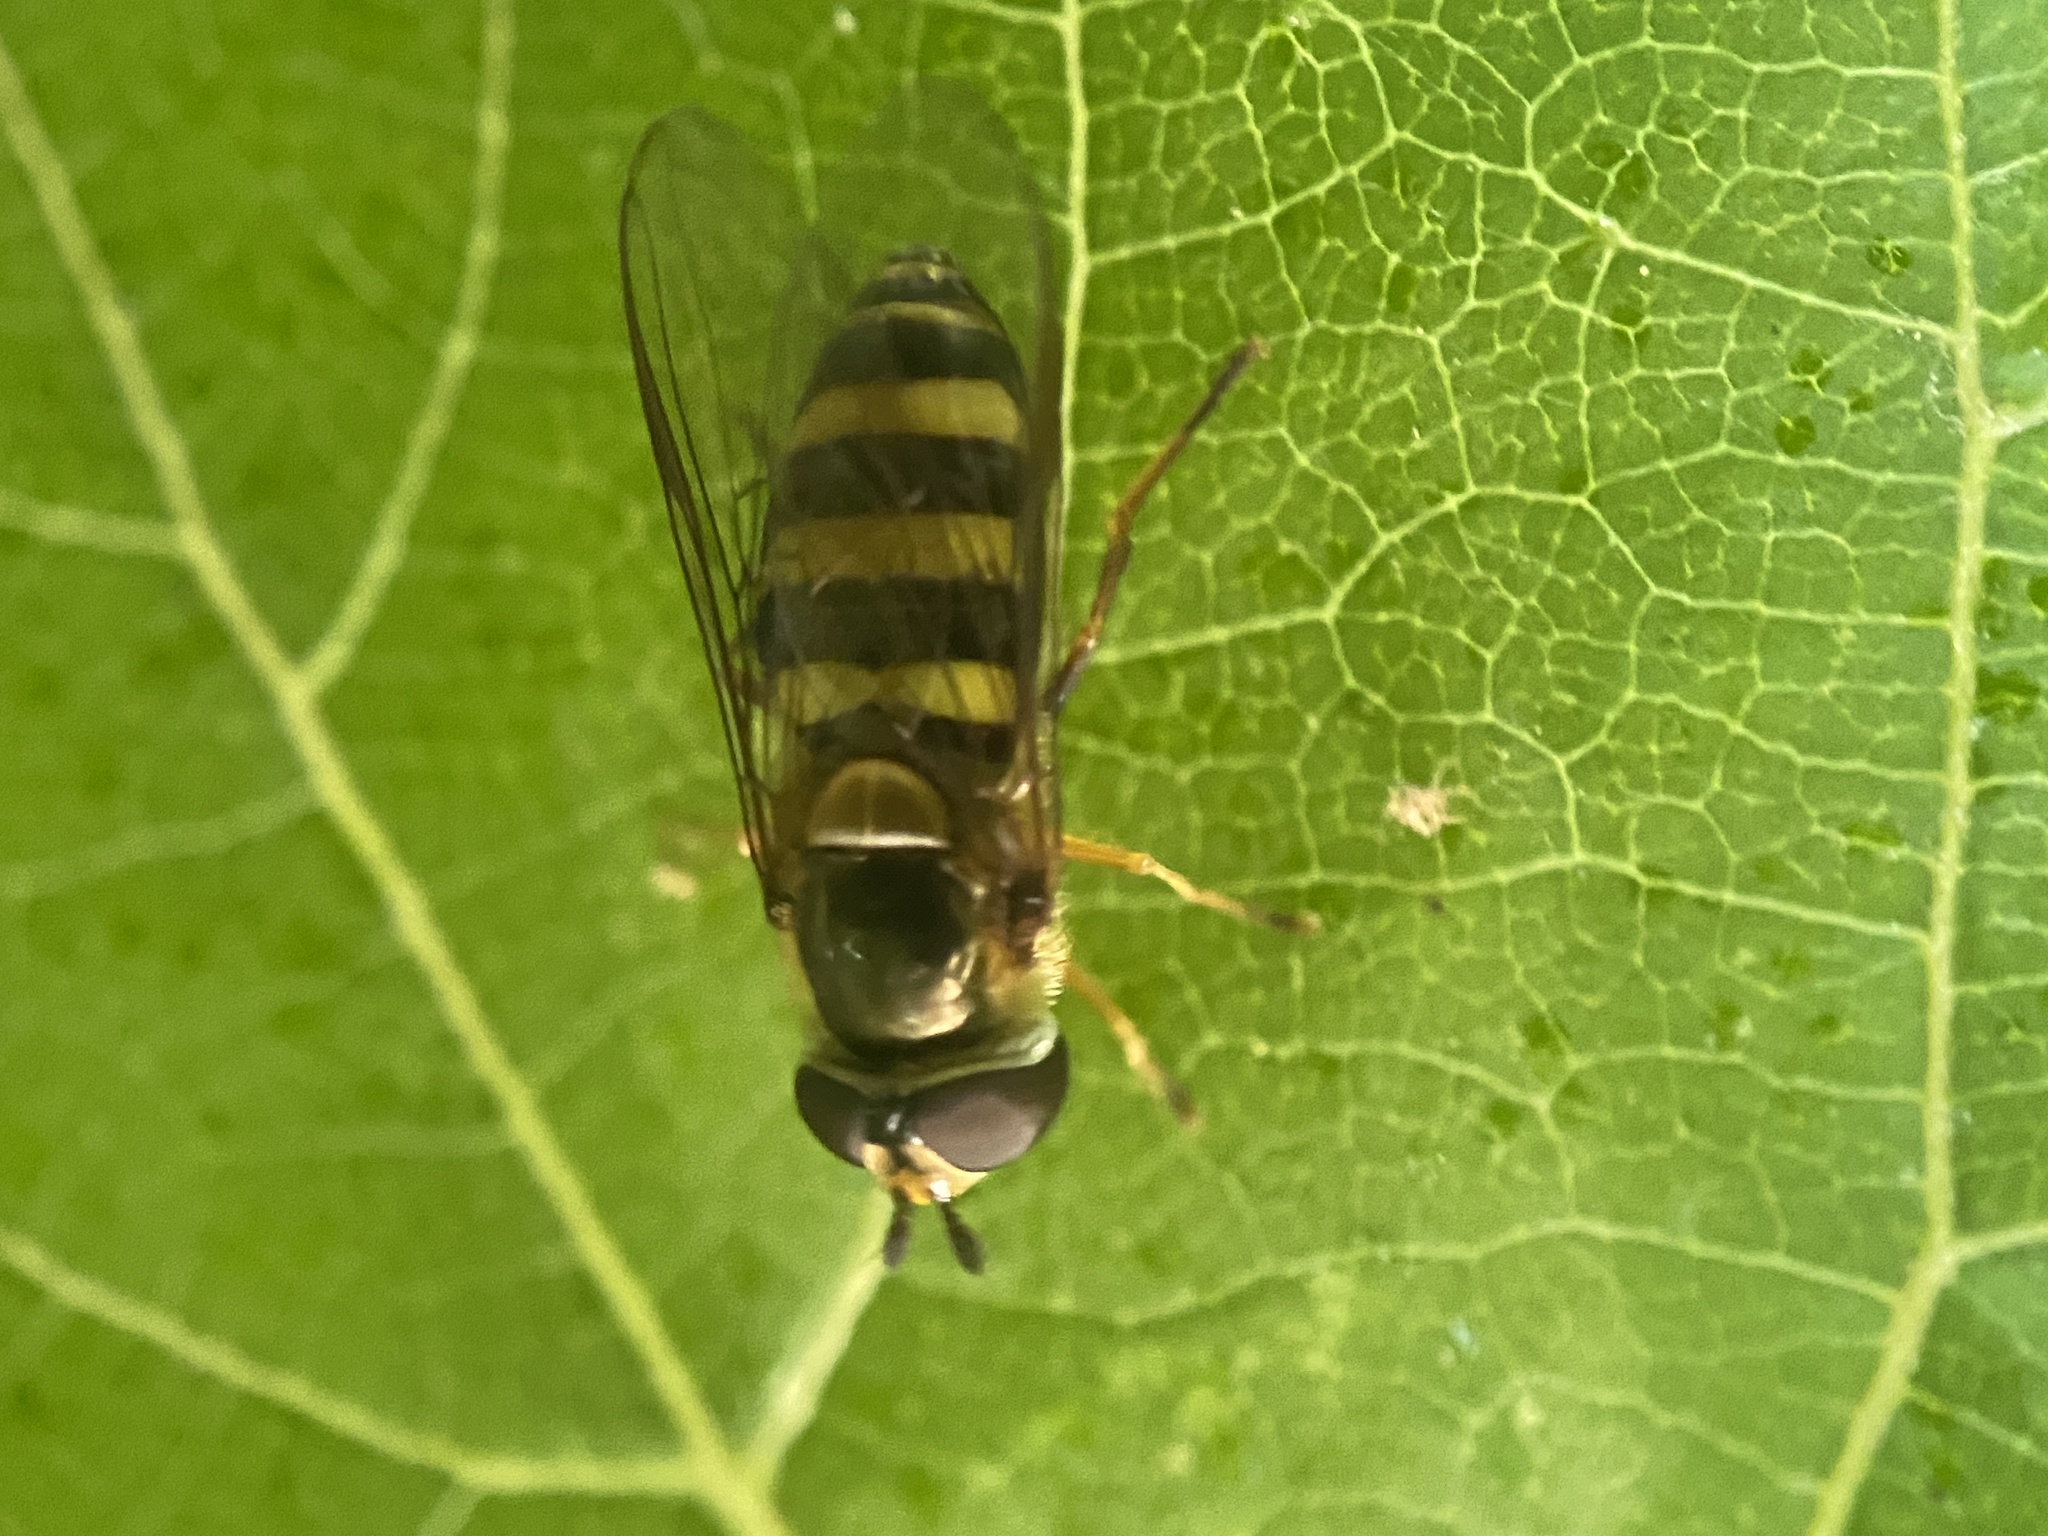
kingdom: Animalia
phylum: Arthropoda
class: Insecta
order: Diptera
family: Syrphidae
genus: Eupeodes
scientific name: Eupeodes
